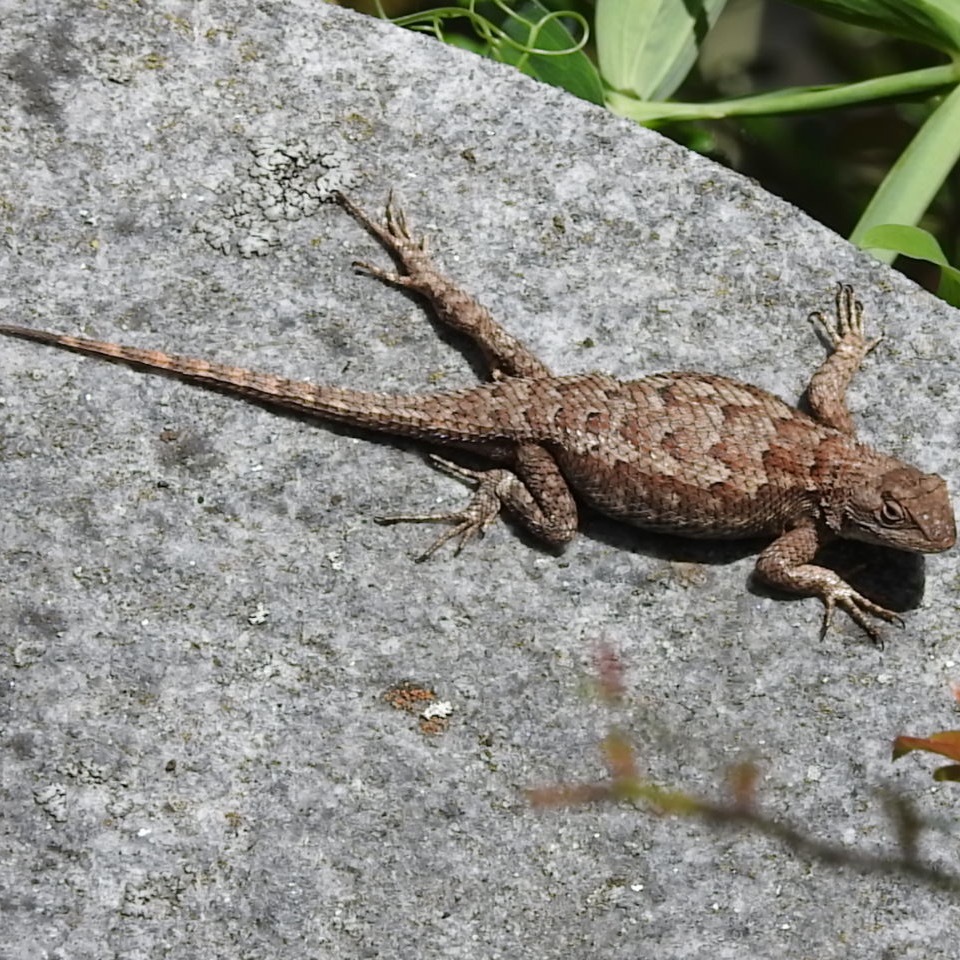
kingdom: Animalia
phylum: Chordata
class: Squamata
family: Phrynosomatidae
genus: Sceloporus
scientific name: Sceloporus occidentalis
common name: Western fence lizard
